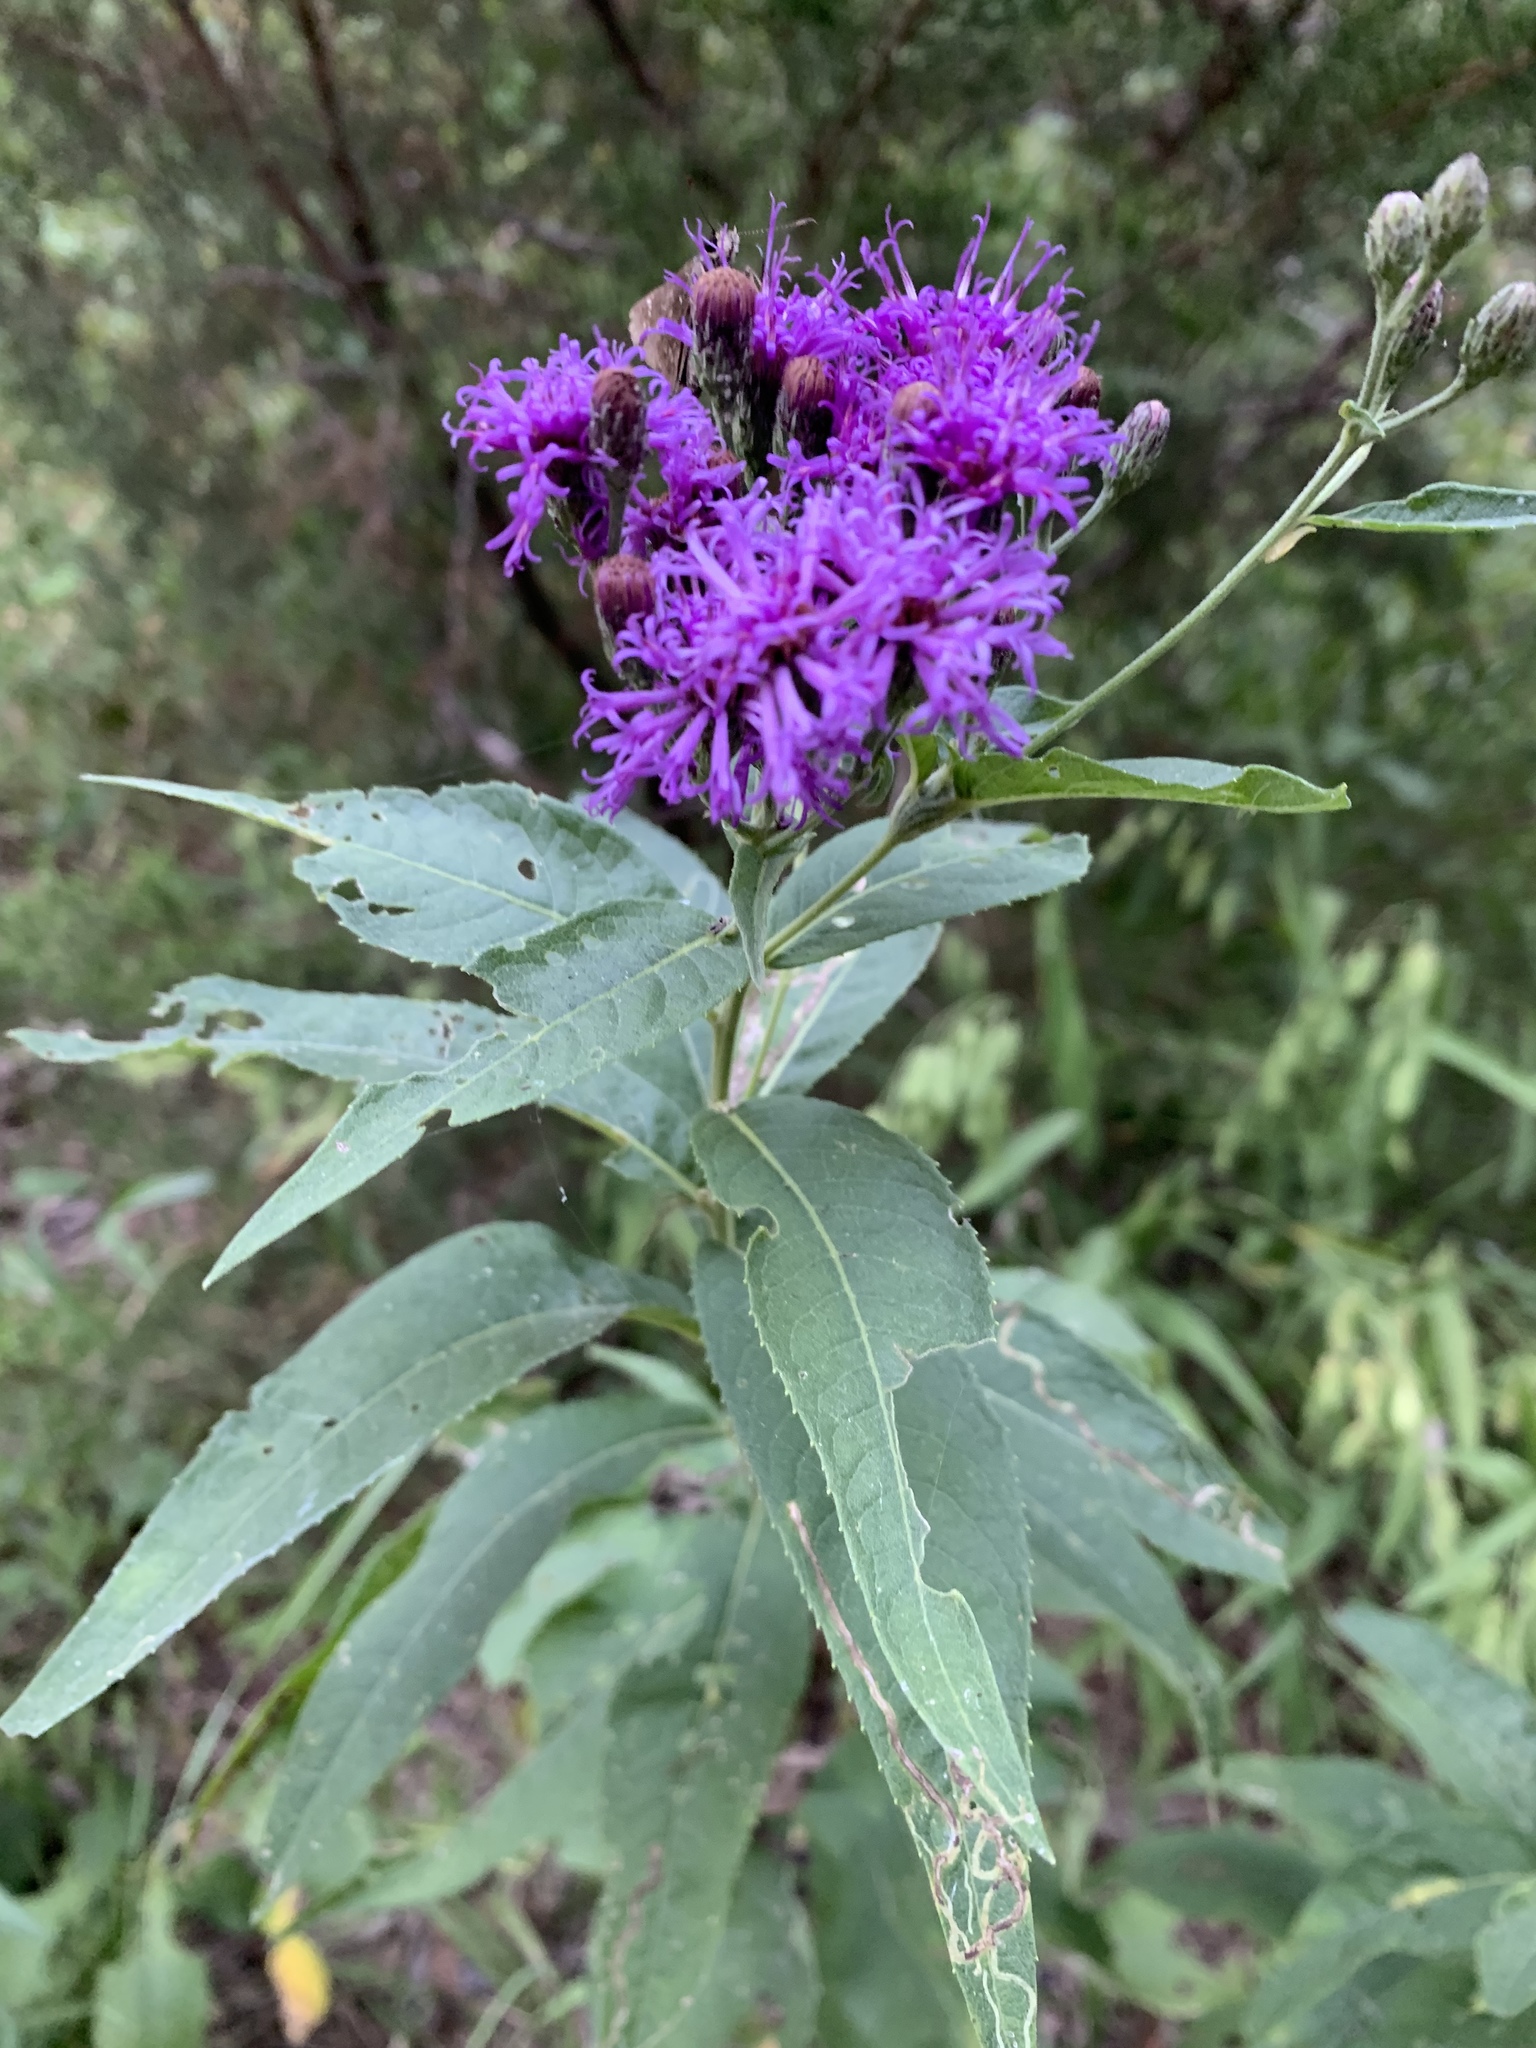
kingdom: Plantae
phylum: Tracheophyta
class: Magnoliopsida
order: Asterales
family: Asteraceae
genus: Vernonia
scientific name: Vernonia baldwinii
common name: Western ironweed
